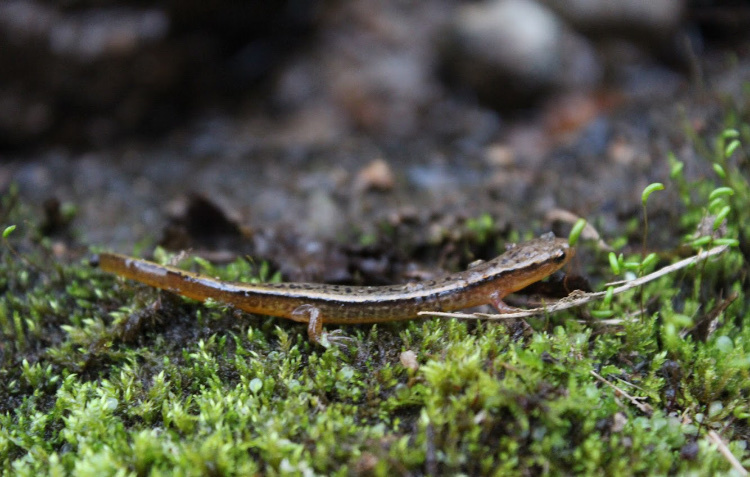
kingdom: Animalia
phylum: Chordata
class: Amphibia
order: Caudata
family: Plethodontidae
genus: Eurycea
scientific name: Eurycea cirrigera
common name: Southern two-lined salamander
